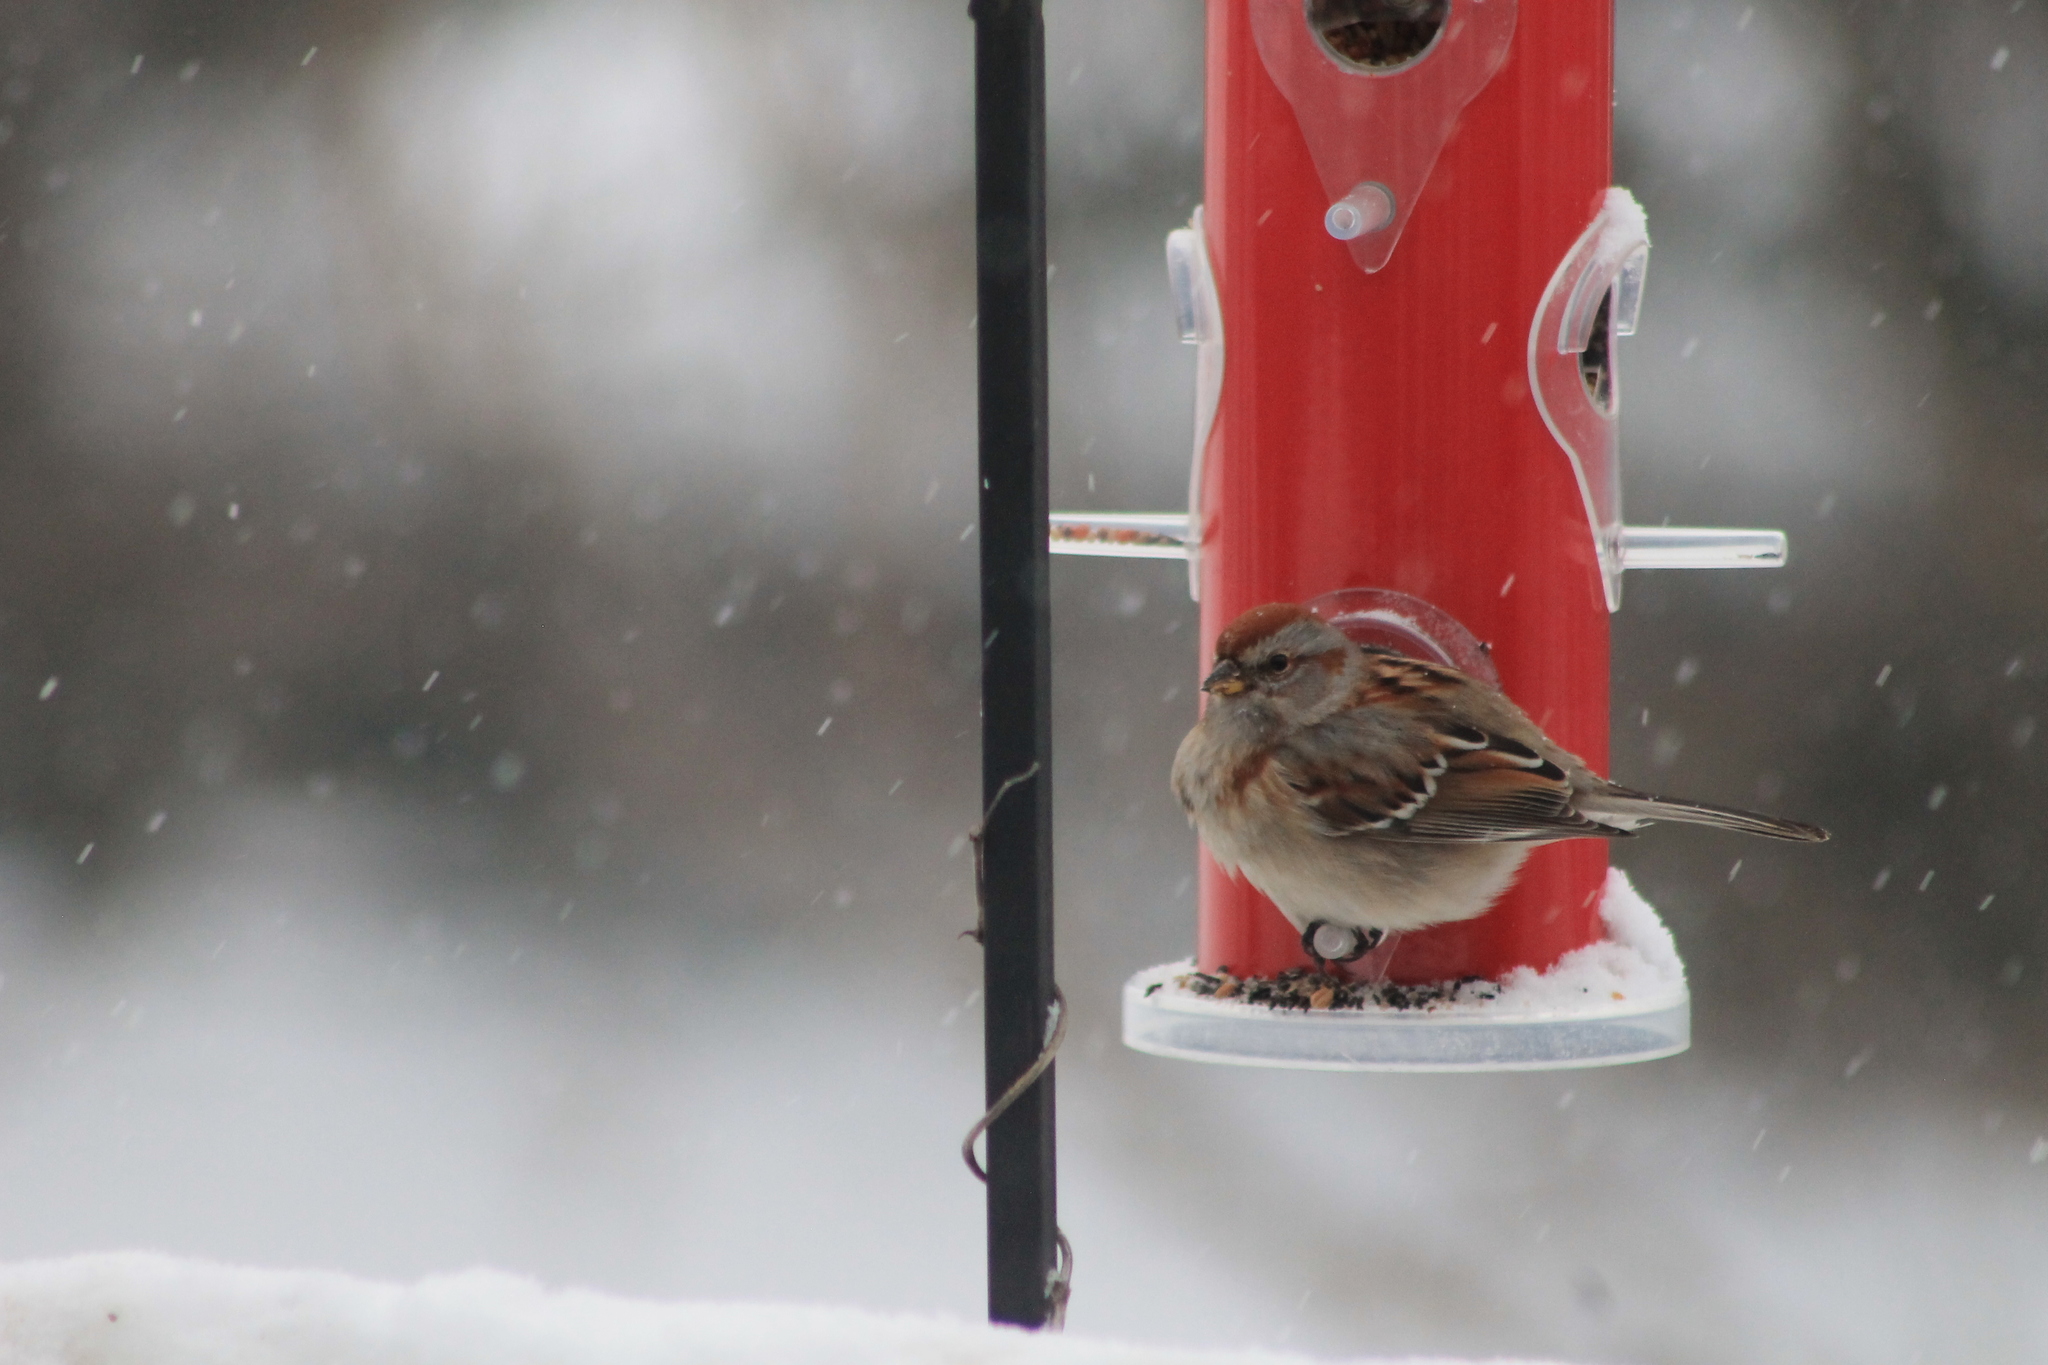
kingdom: Animalia
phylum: Chordata
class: Aves
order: Passeriformes
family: Passerellidae
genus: Spizelloides
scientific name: Spizelloides arborea
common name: American tree sparrow
